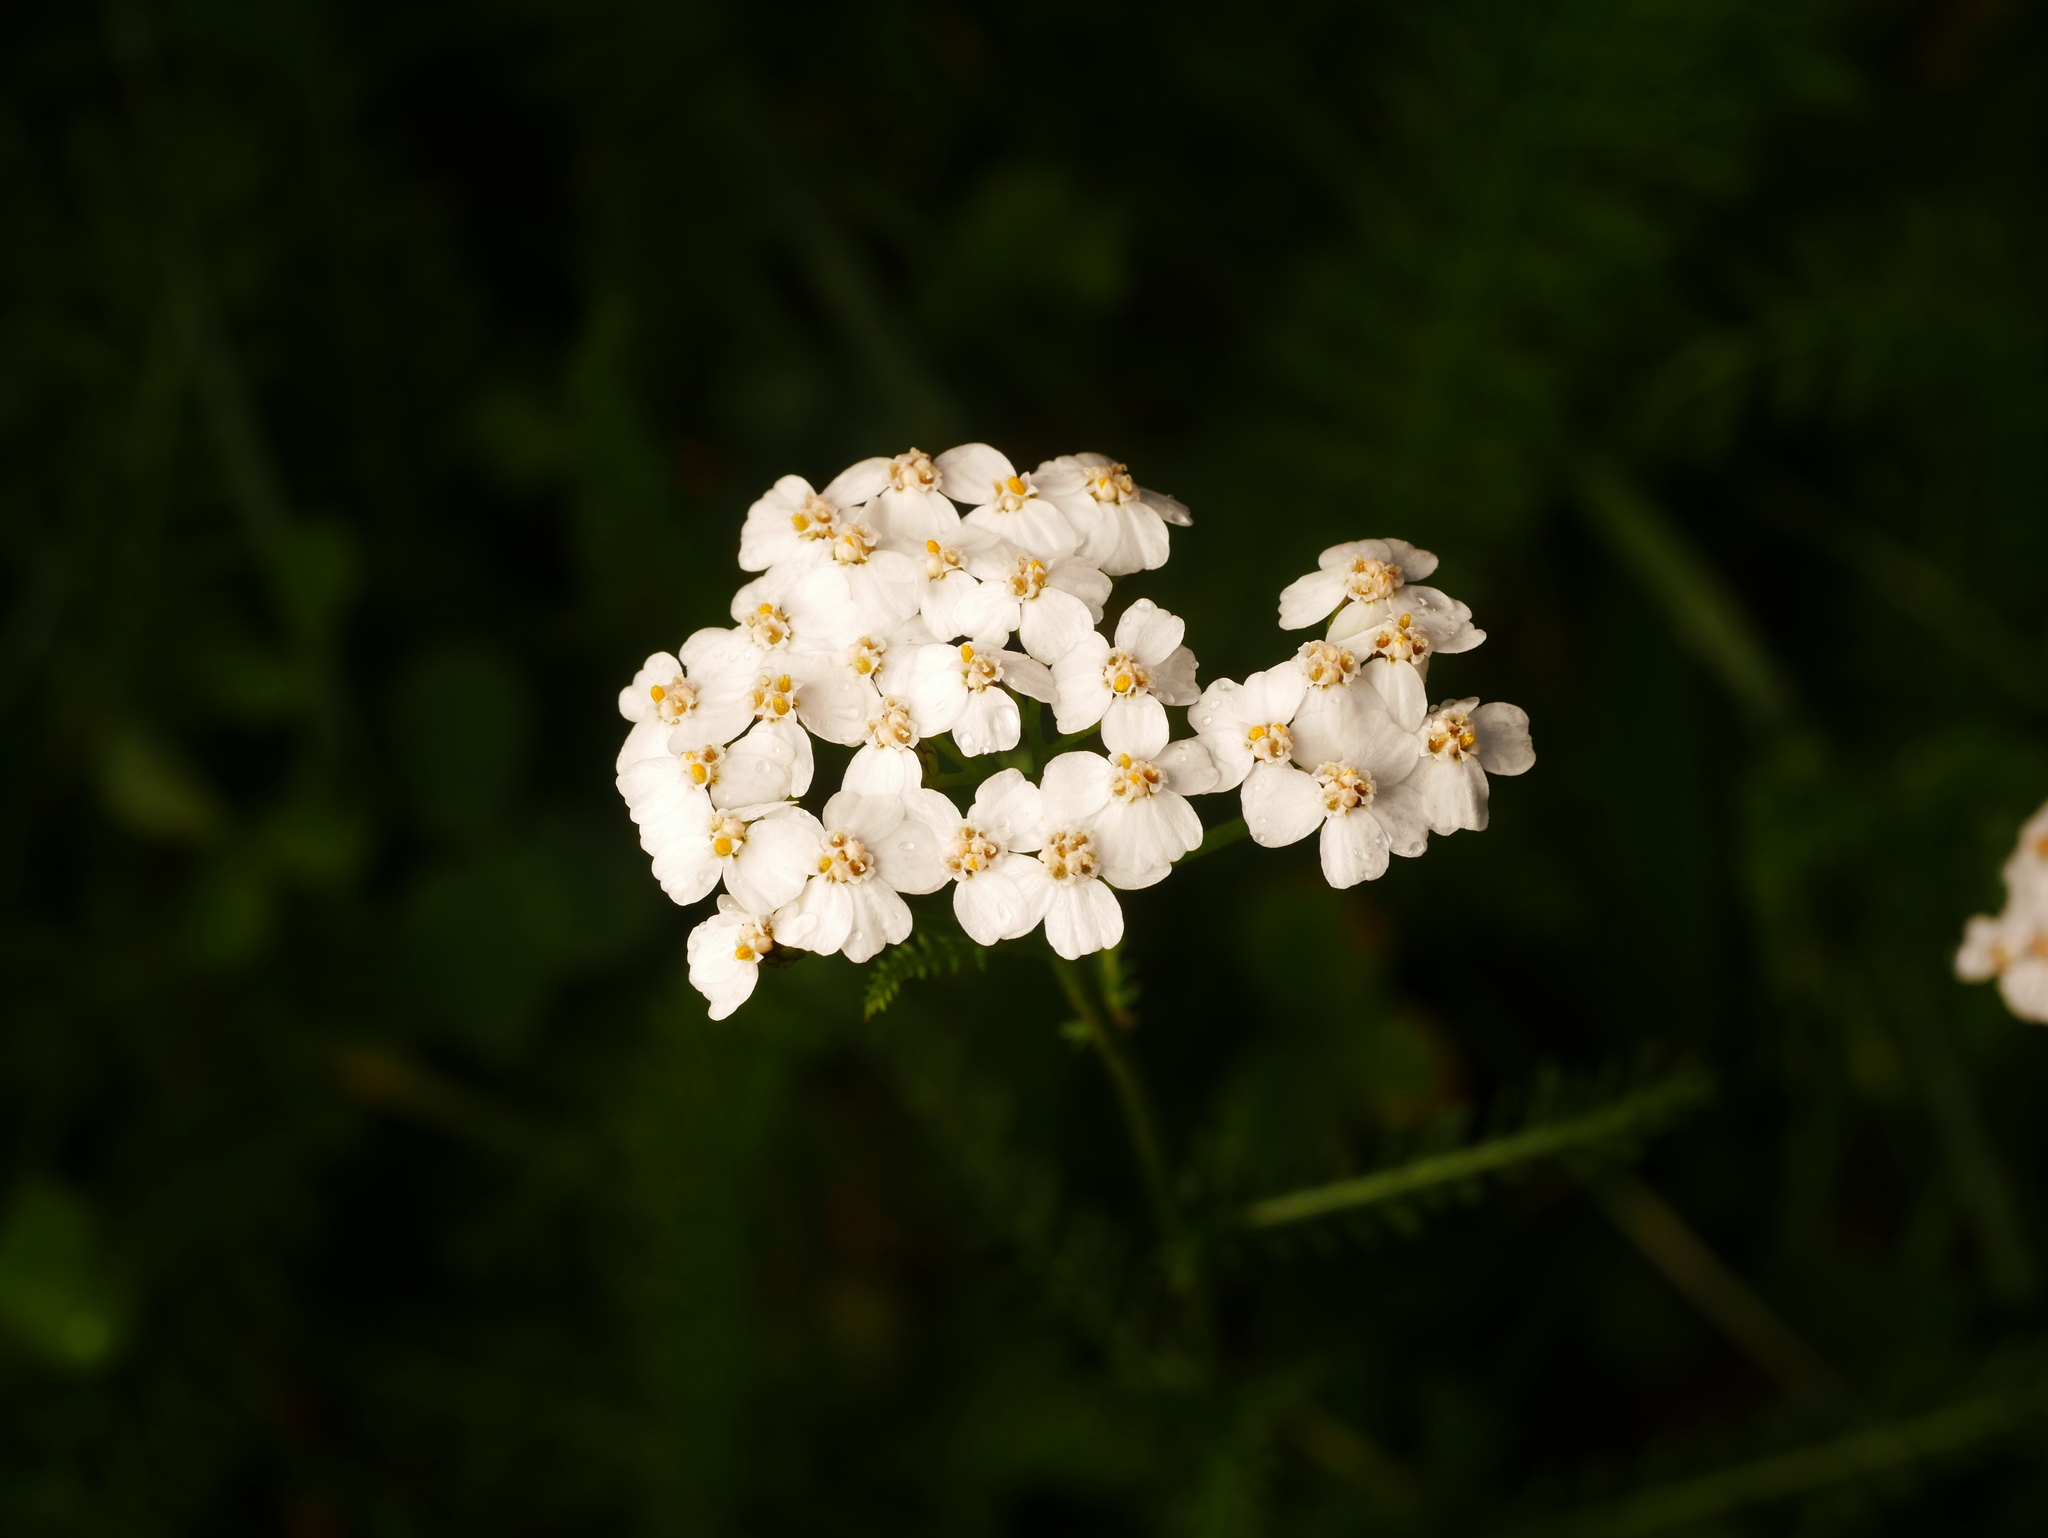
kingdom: Plantae
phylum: Tracheophyta
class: Magnoliopsida
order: Asterales
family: Asteraceae
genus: Achillea
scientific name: Achillea millefolium
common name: Yarrow
